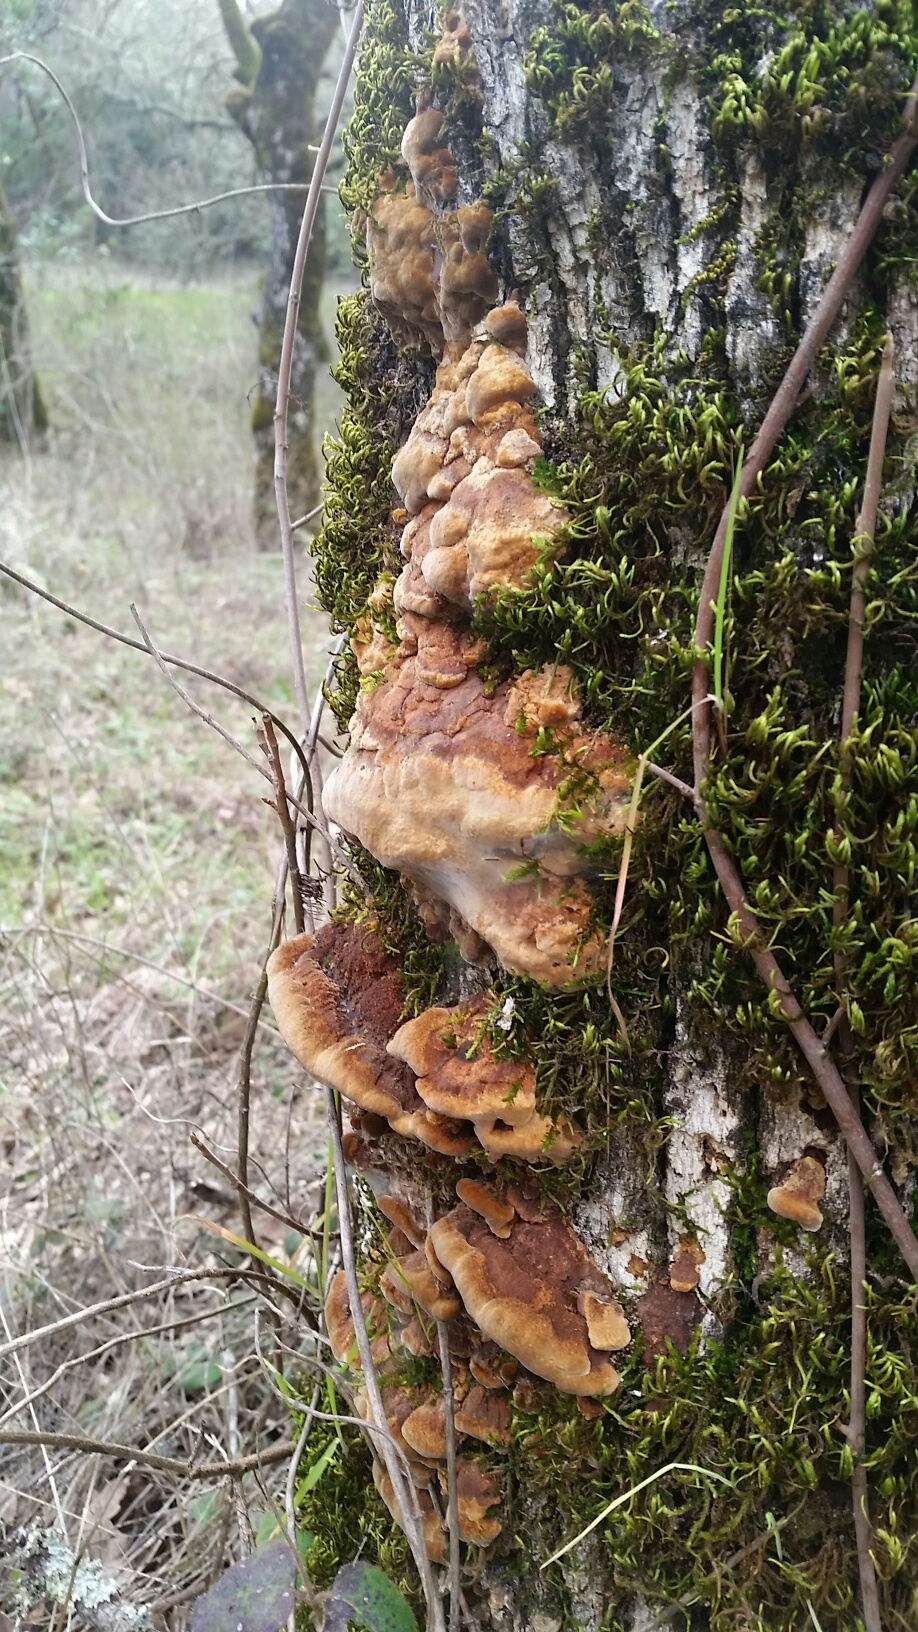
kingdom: Fungi
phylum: Basidiomycota
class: Agaricomycetes
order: Hymenochaetales
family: Hymenochaetaceae
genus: Phellinus
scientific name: Phellinus gilvus
